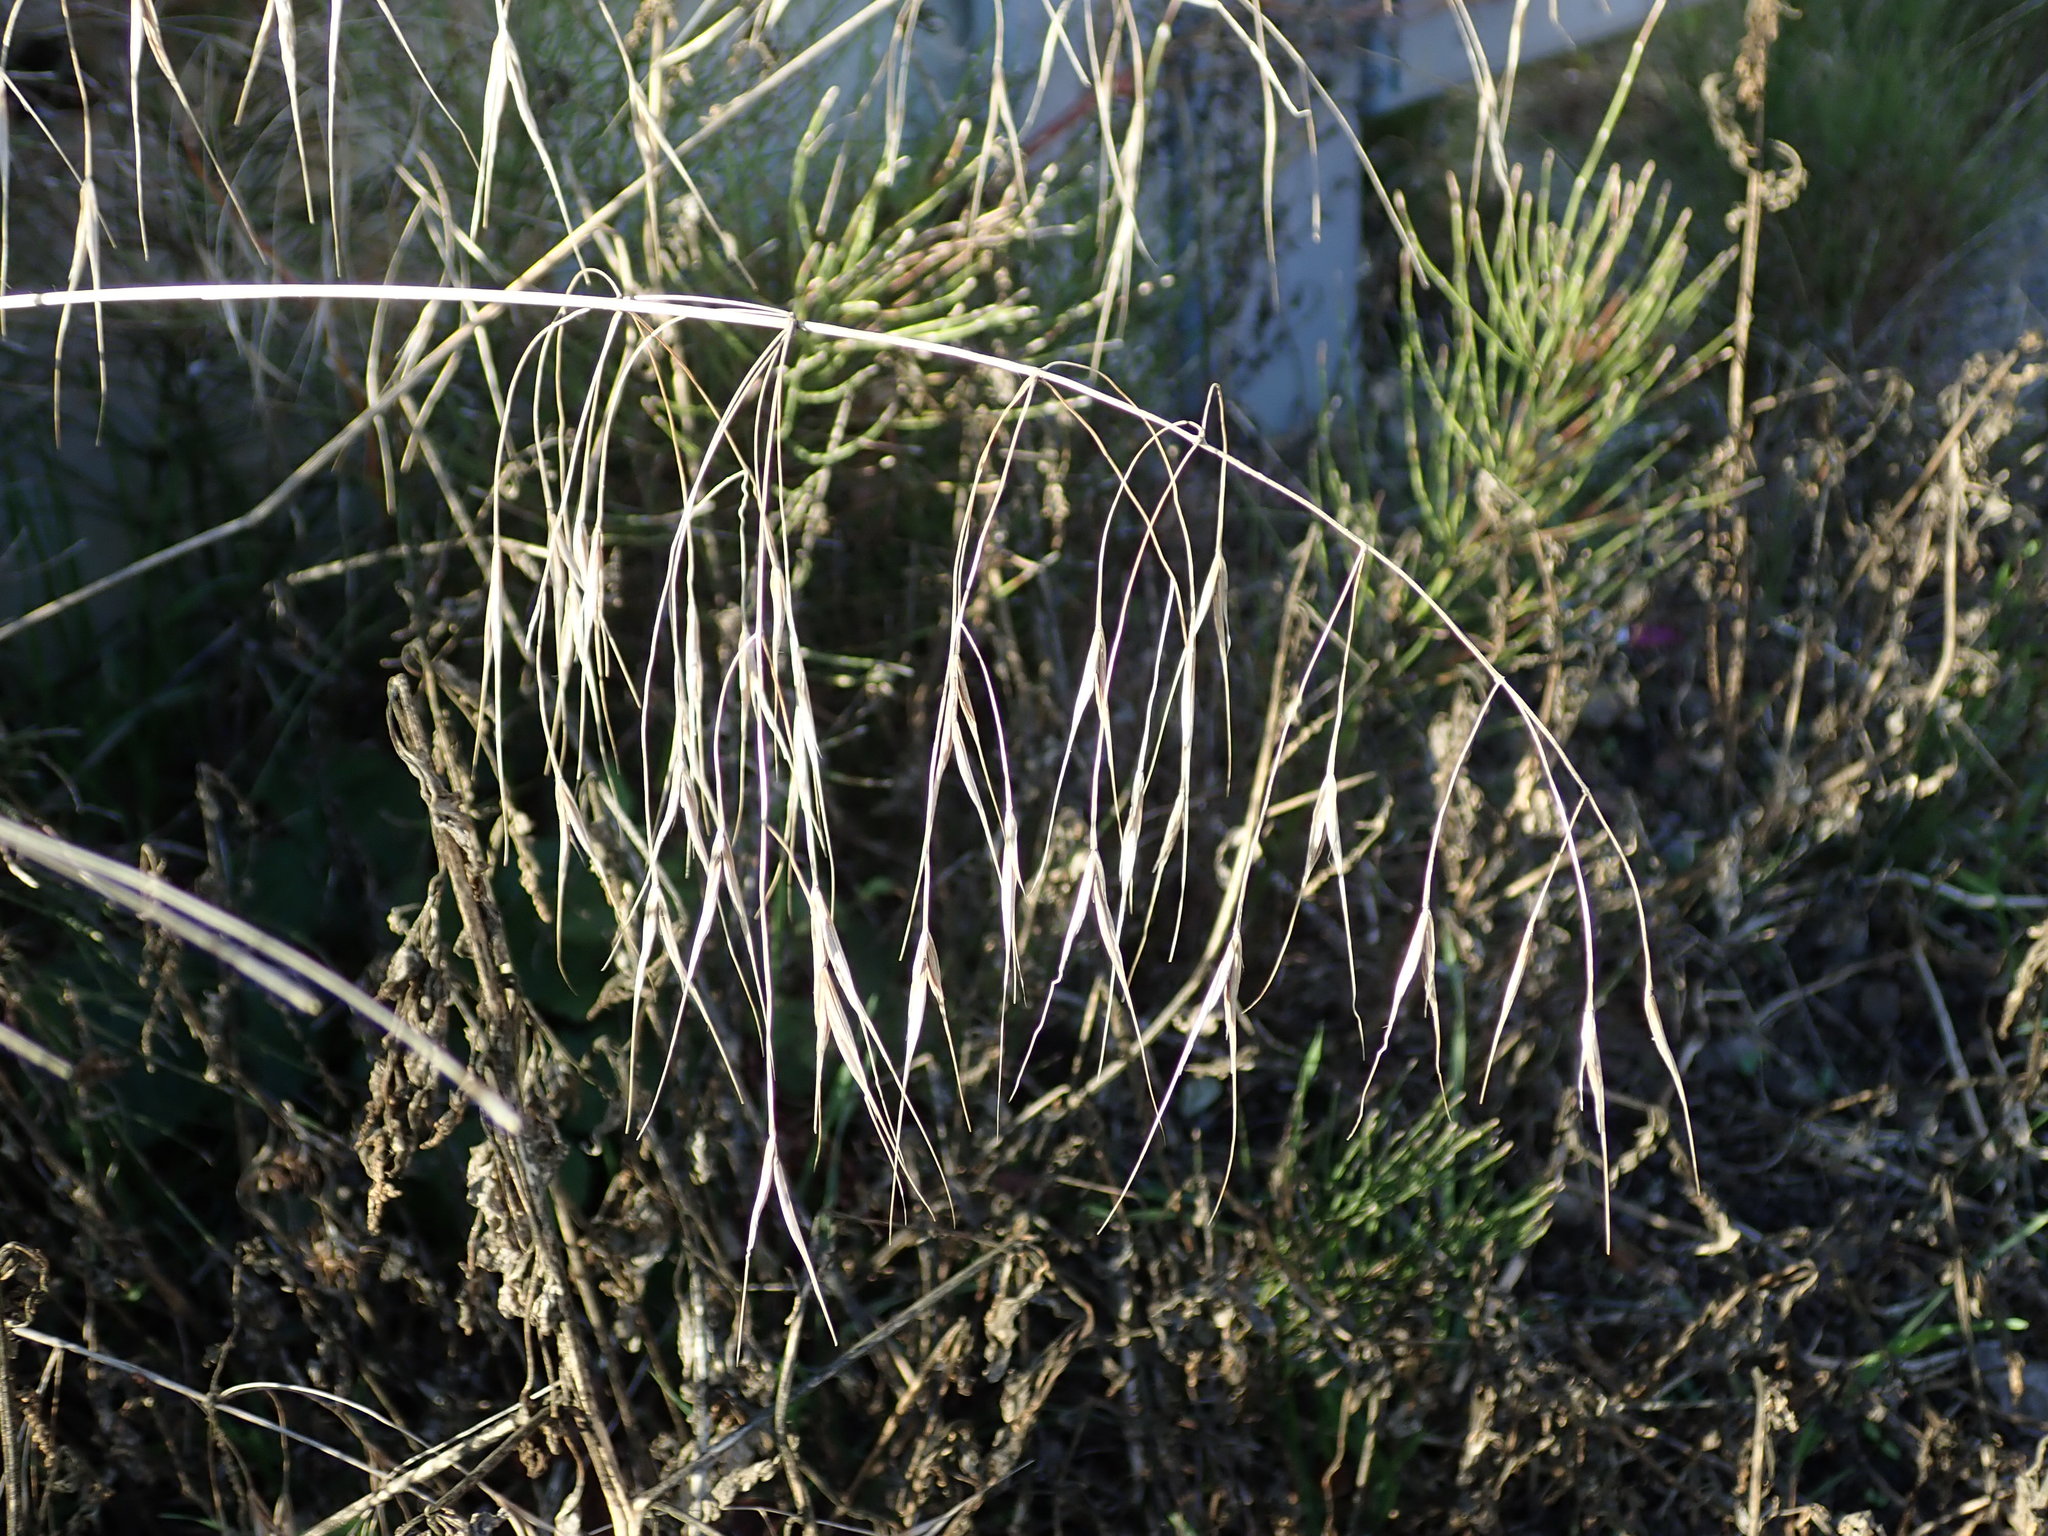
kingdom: Plantae
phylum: Tracheophyta
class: Liliopsida
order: Poales
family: Poaceae
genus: Bromus
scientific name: Bromus sterilis
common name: Poverty brome
